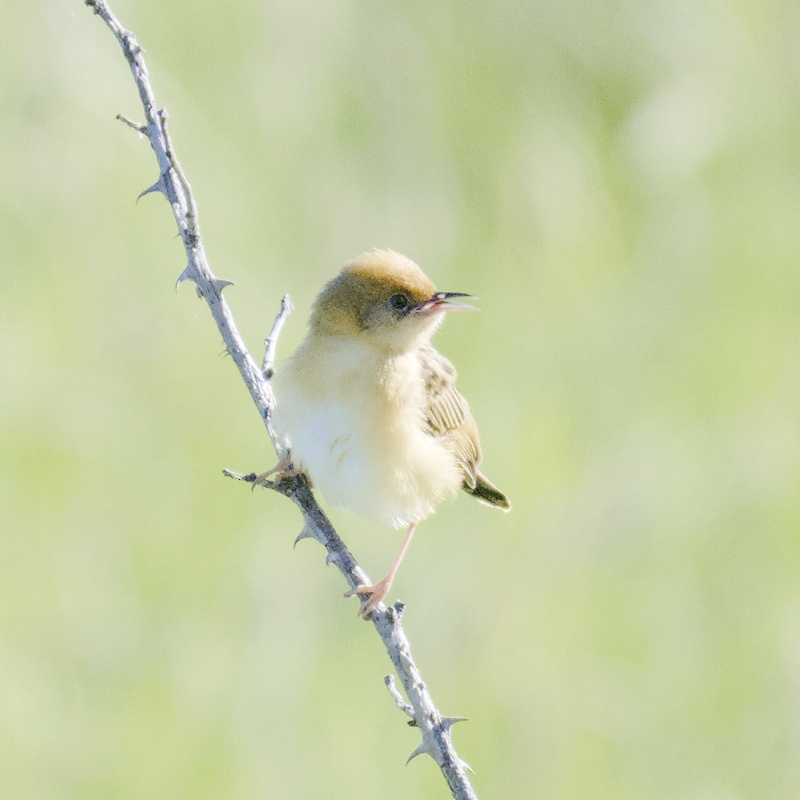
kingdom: Animalia
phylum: Chordata
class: Aves
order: Passeriformes
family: Cisticolidae
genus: Cisticola
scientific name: Cisticola exilis
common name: Golden-headed cisticola
